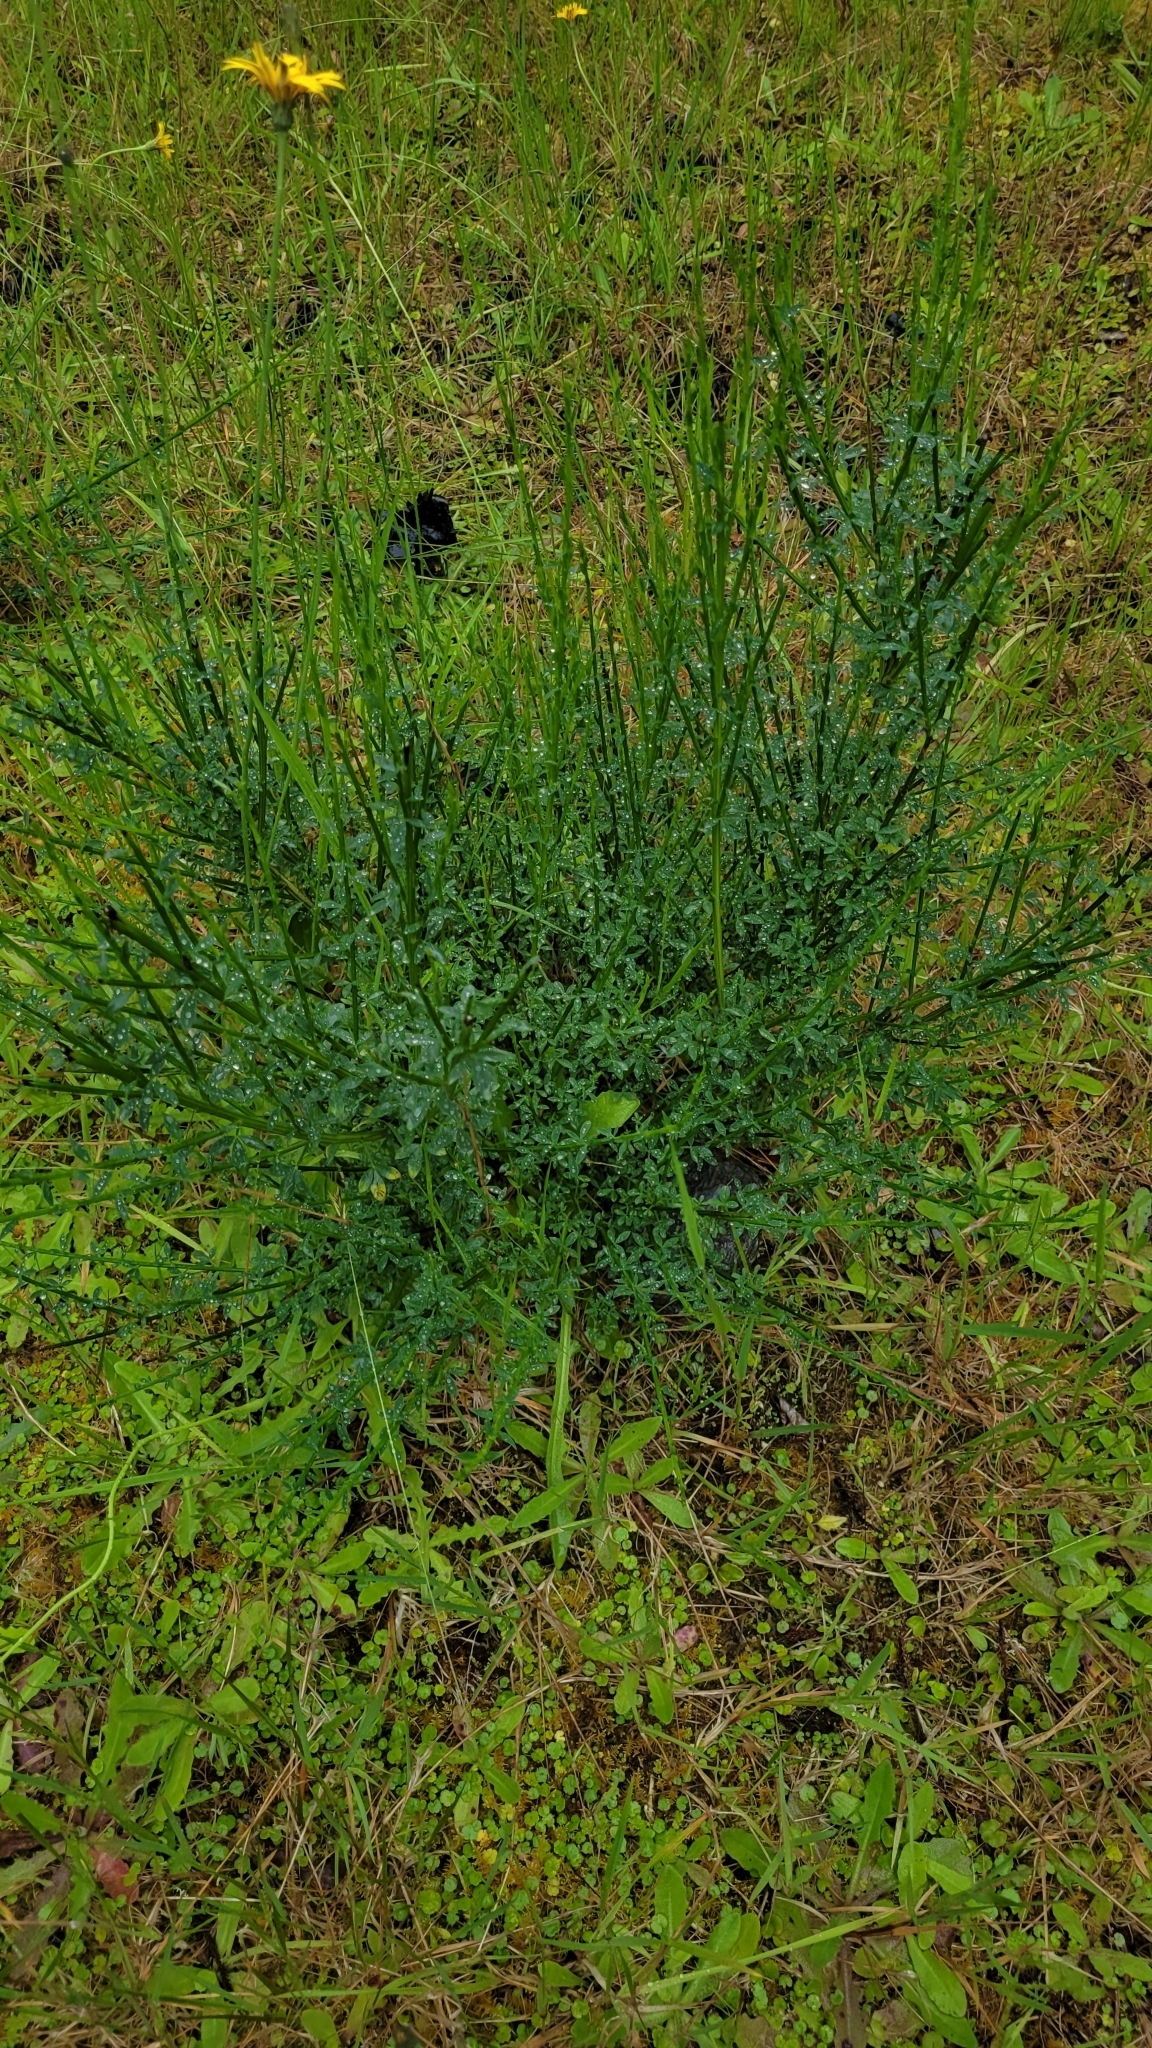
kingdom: Plantae
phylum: Tracheophyta
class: Magnoliopsida
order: Fabales
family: Fabaceae
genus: Cytisus
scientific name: Cytisus scoparius
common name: Scotch broom
